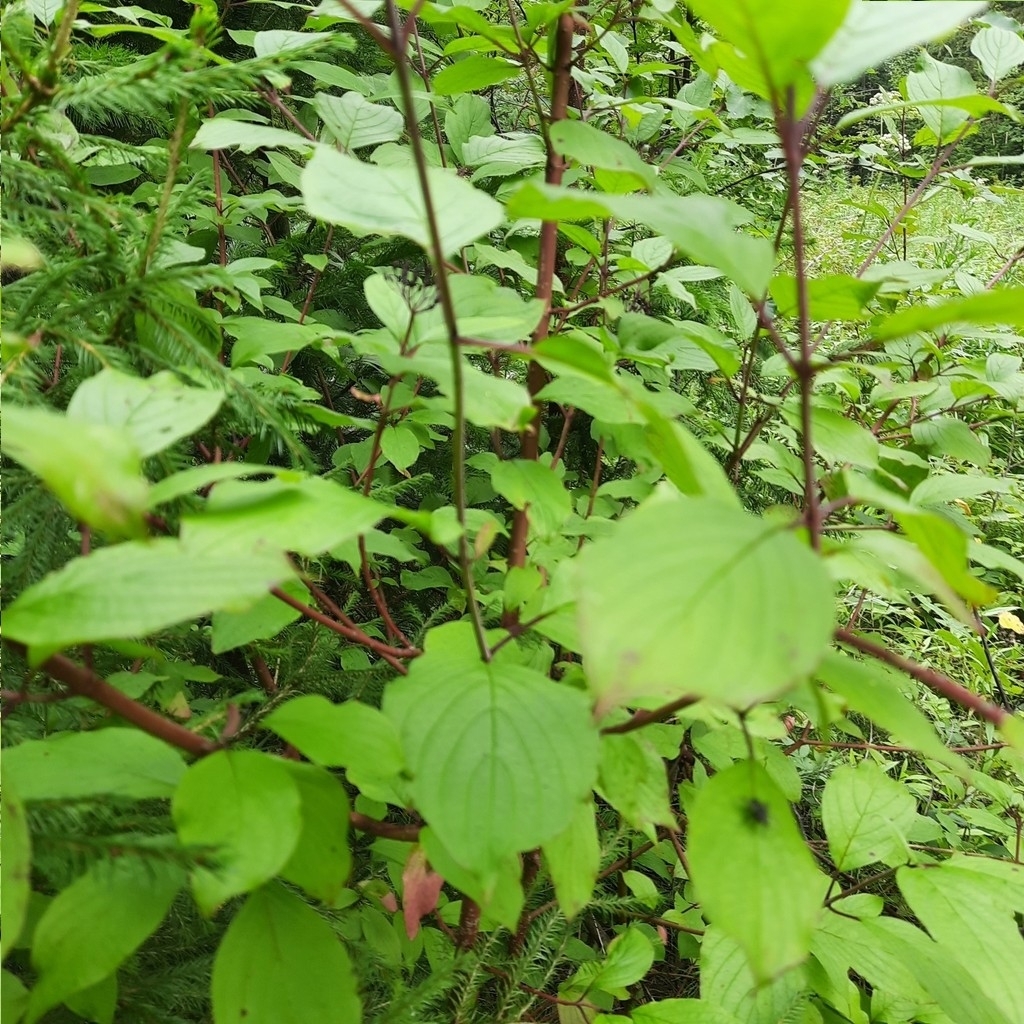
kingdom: Plantae
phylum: Tracheophyta
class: Magnoliopsida
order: Cornales
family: Cornaceae
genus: Cornus
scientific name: Cornus alba
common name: White dogwood
